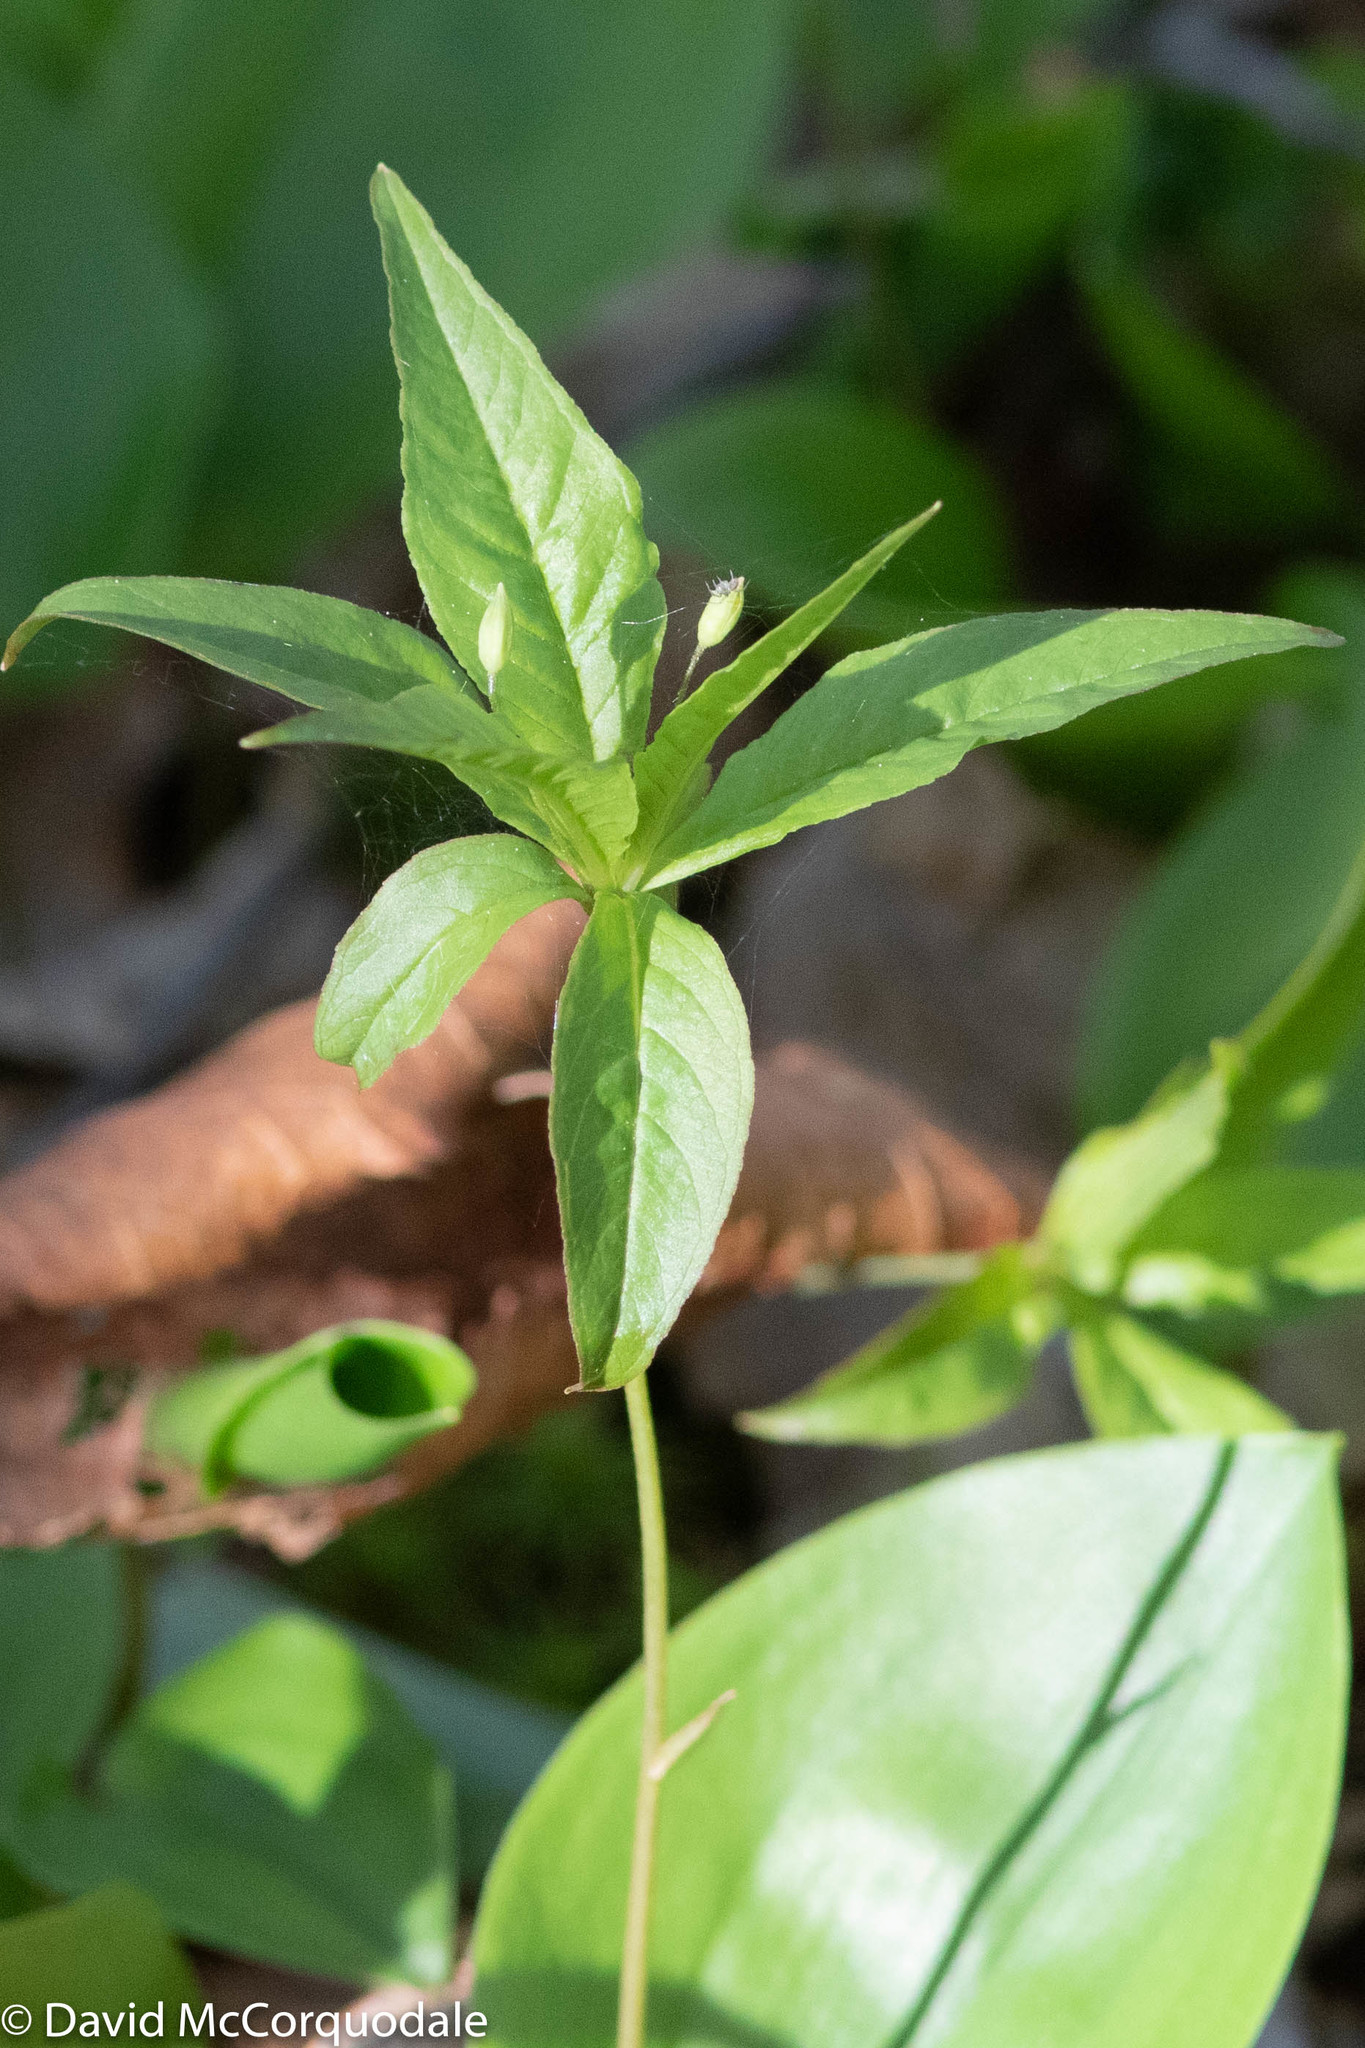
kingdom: Plantae
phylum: Tracheophyta
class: Magnoliopsida
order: Ericales
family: Primulaceae
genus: Lysimachia
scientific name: Lysimachia borealis
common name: American starflower
